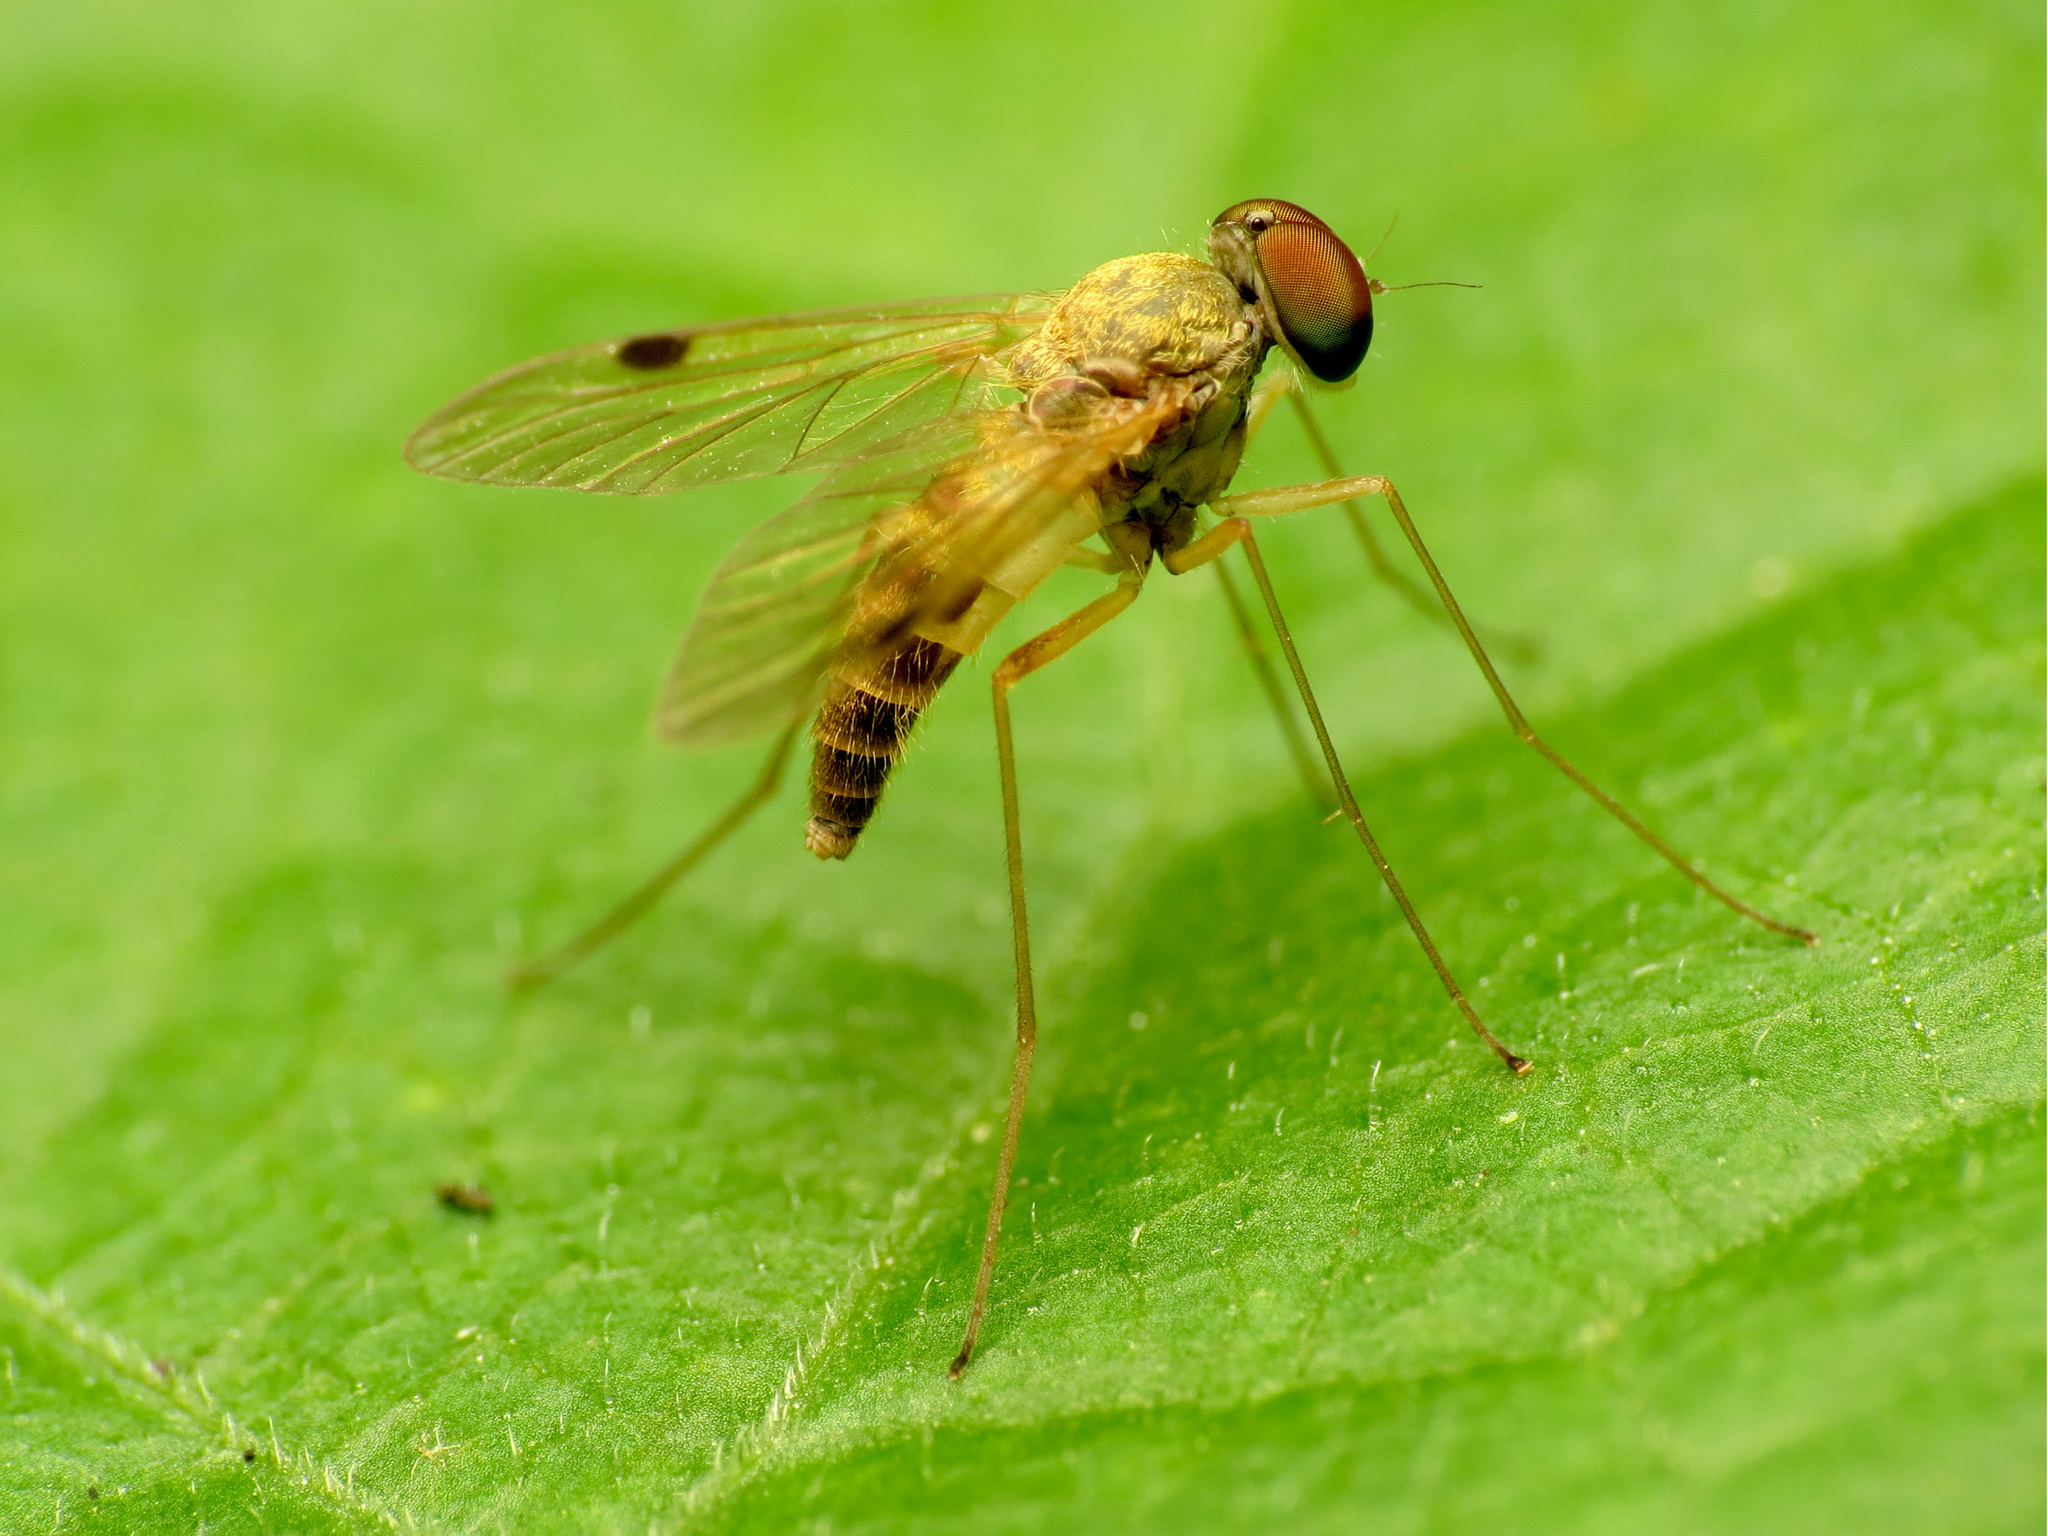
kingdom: Animalia
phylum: Arthropoda
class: Insecta
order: Diptera
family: Rhagionidae
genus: Chrysopilus
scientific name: Chrysopilus modestus
